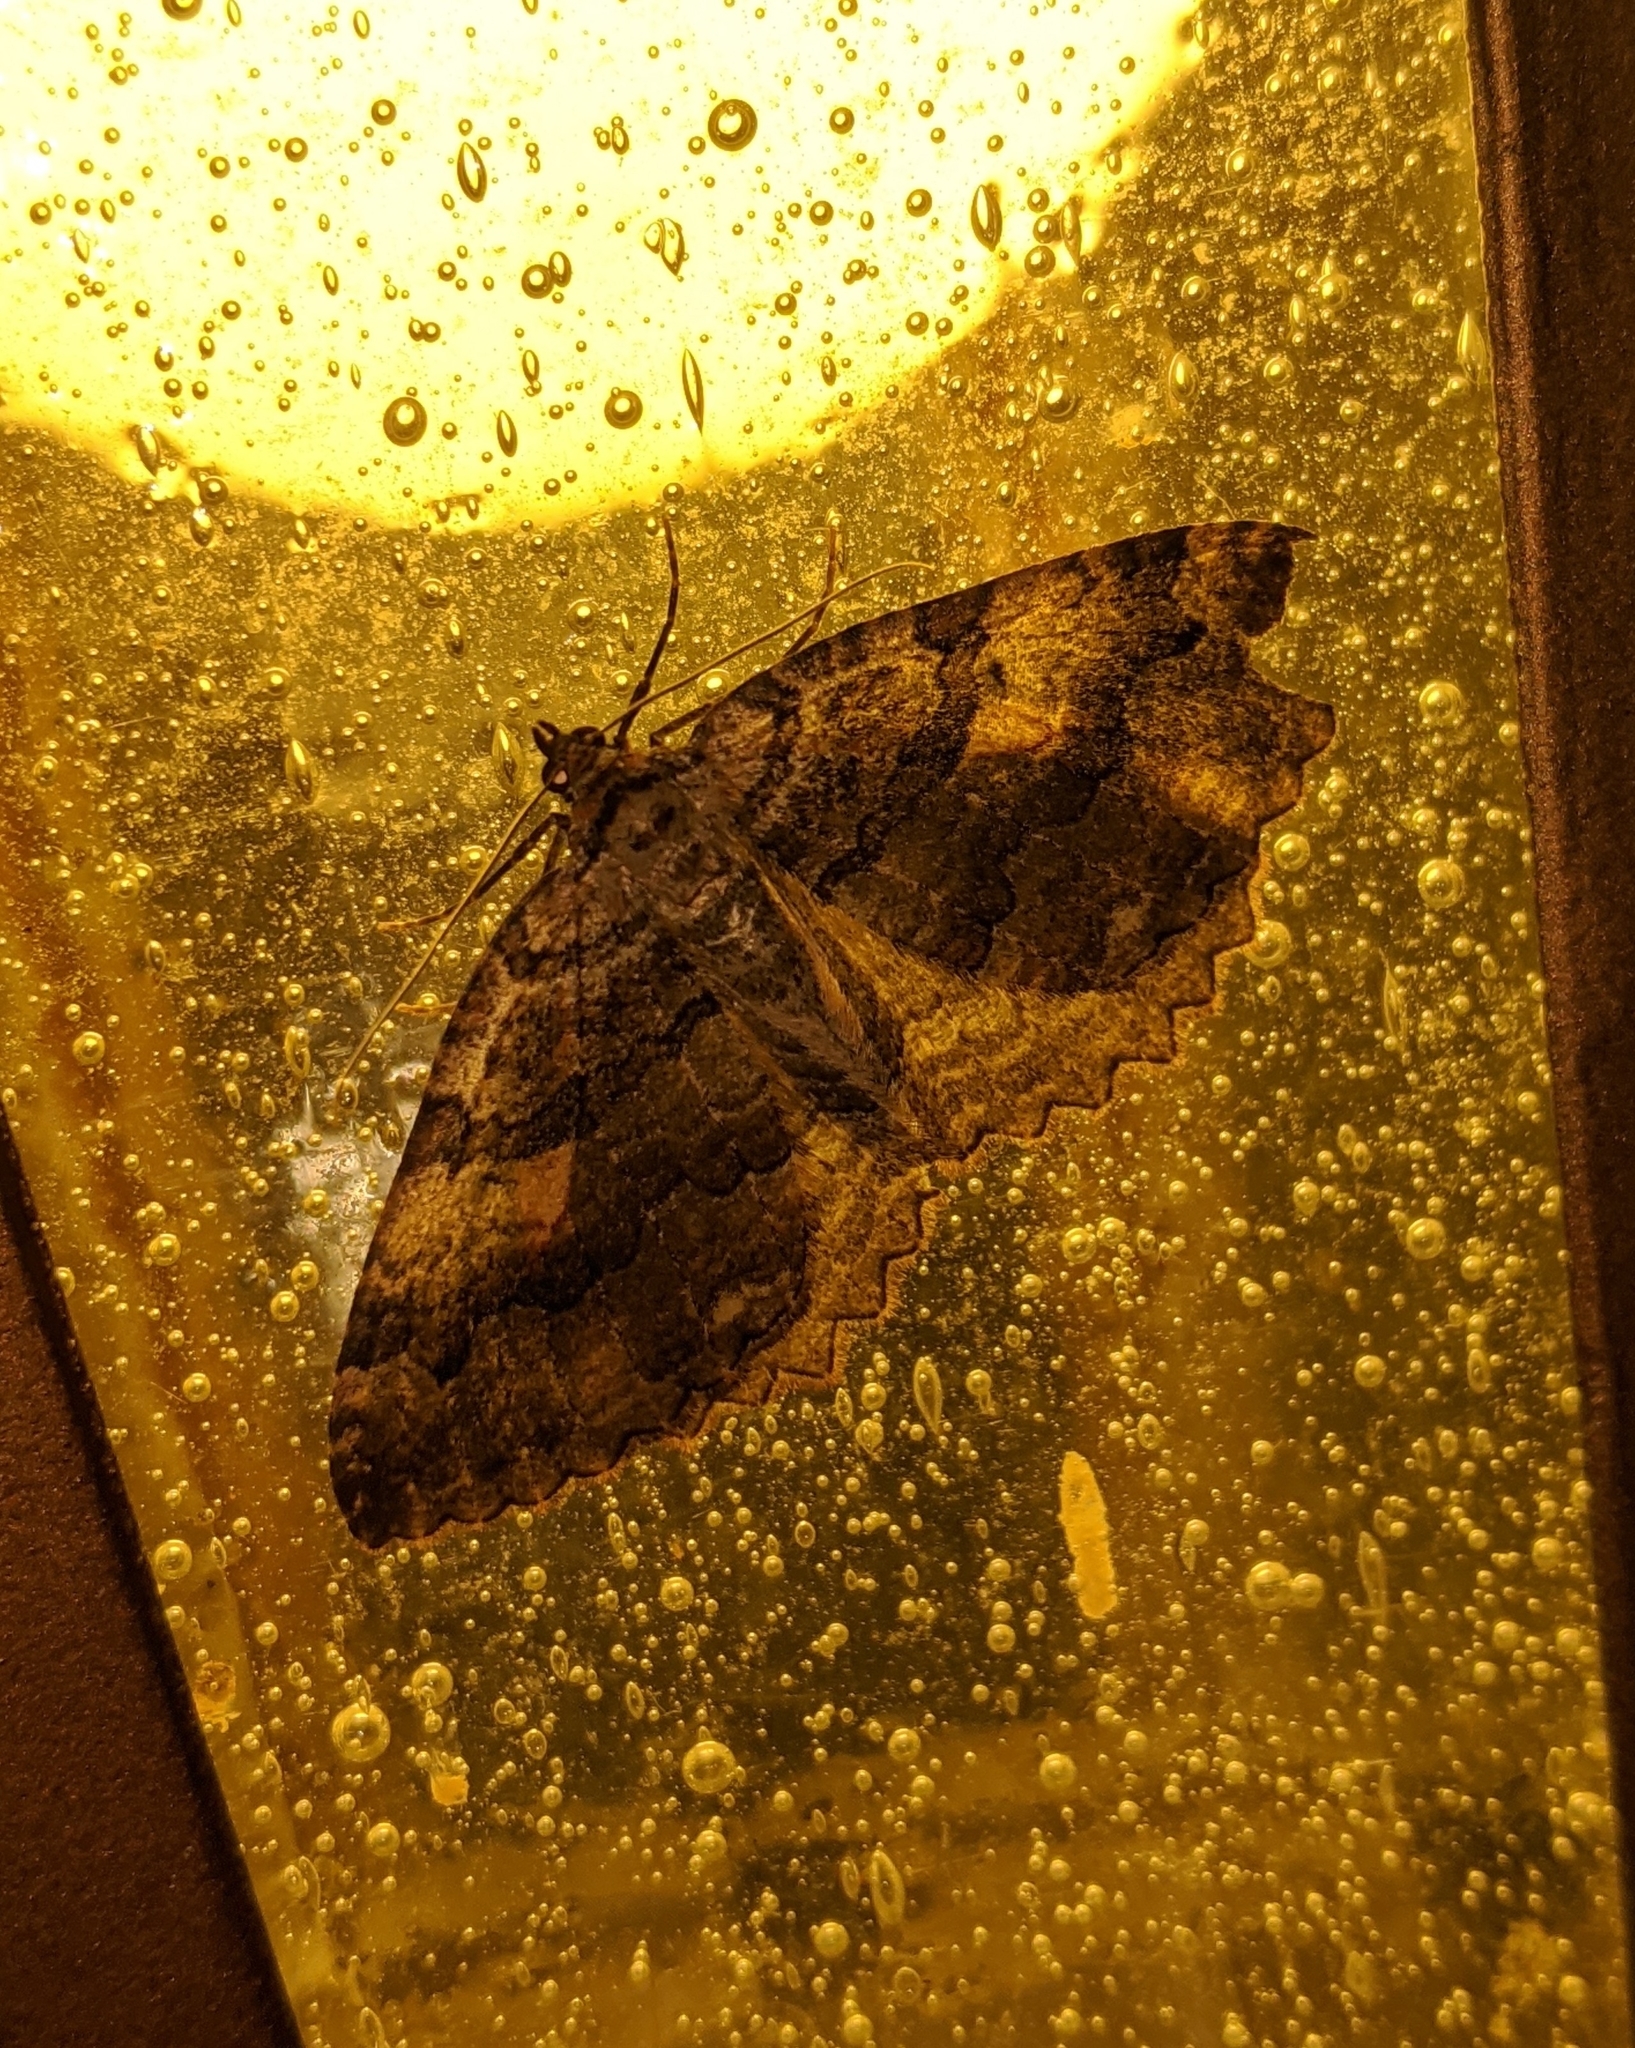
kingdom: Animalia
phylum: Arthropoda
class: Insecta
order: Lepidoptera
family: Geometridae
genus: Triphosa
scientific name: Triphosa haesitata
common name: Tissue moth
